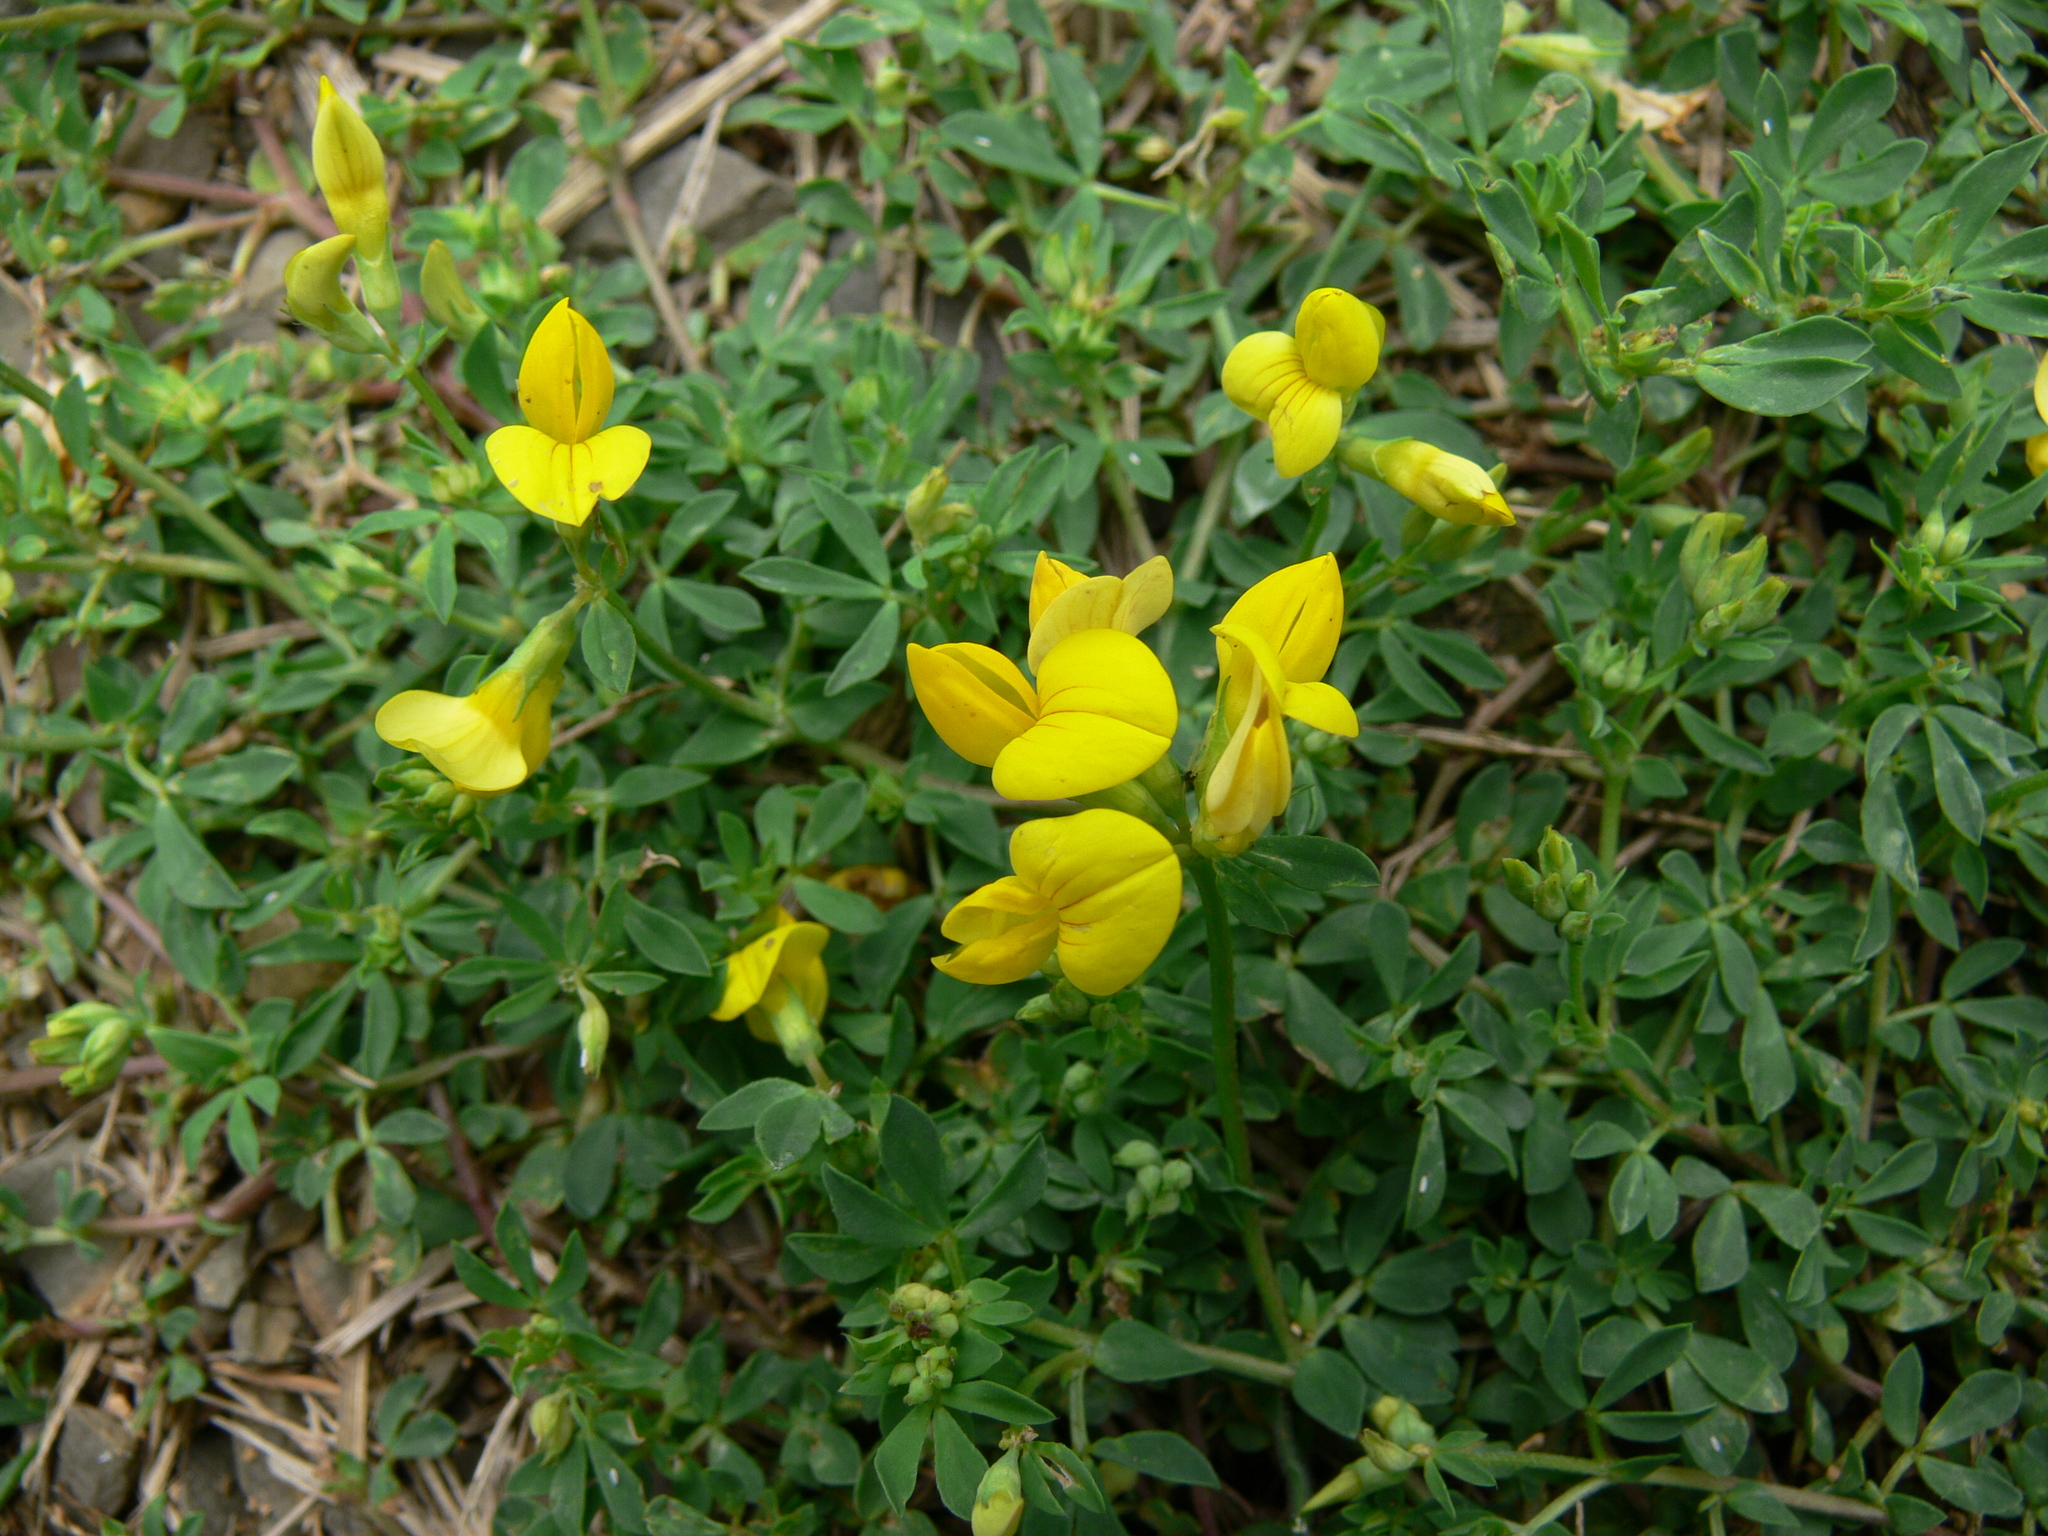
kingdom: Plantae
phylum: Tracheophyta
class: Magnoliopsida
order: Fabales
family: Fabaceae
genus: Lotus
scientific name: Lotus corniculatus
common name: Common bird's-foot-trefoil
